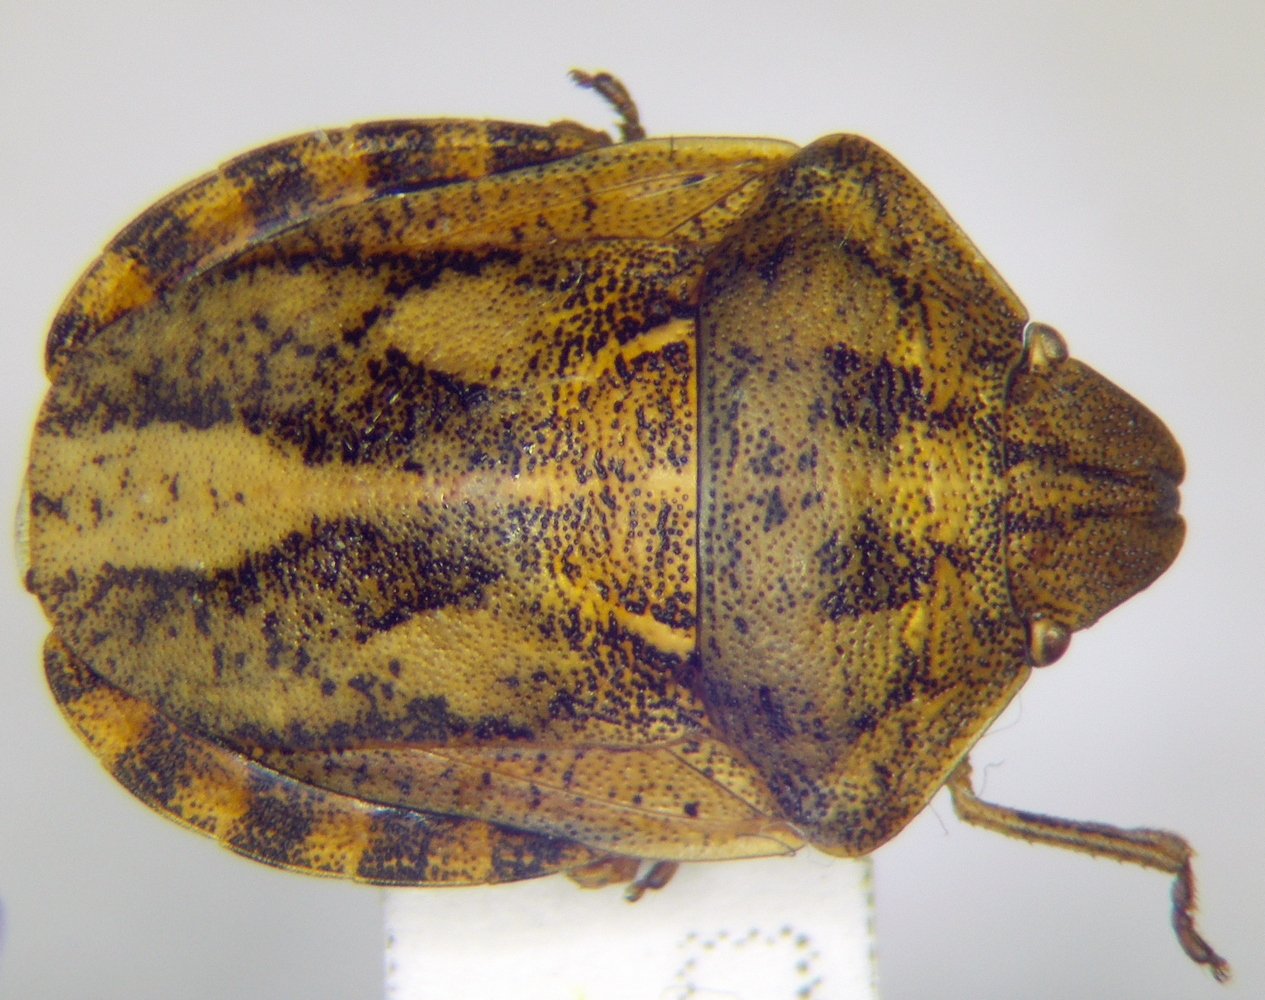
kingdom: Animalia
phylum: Arthropoda
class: Insecta
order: Hemiptera
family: Scutelleridae
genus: Eurygaster
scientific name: Eurygaster testudinaria
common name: Tortoise bug
